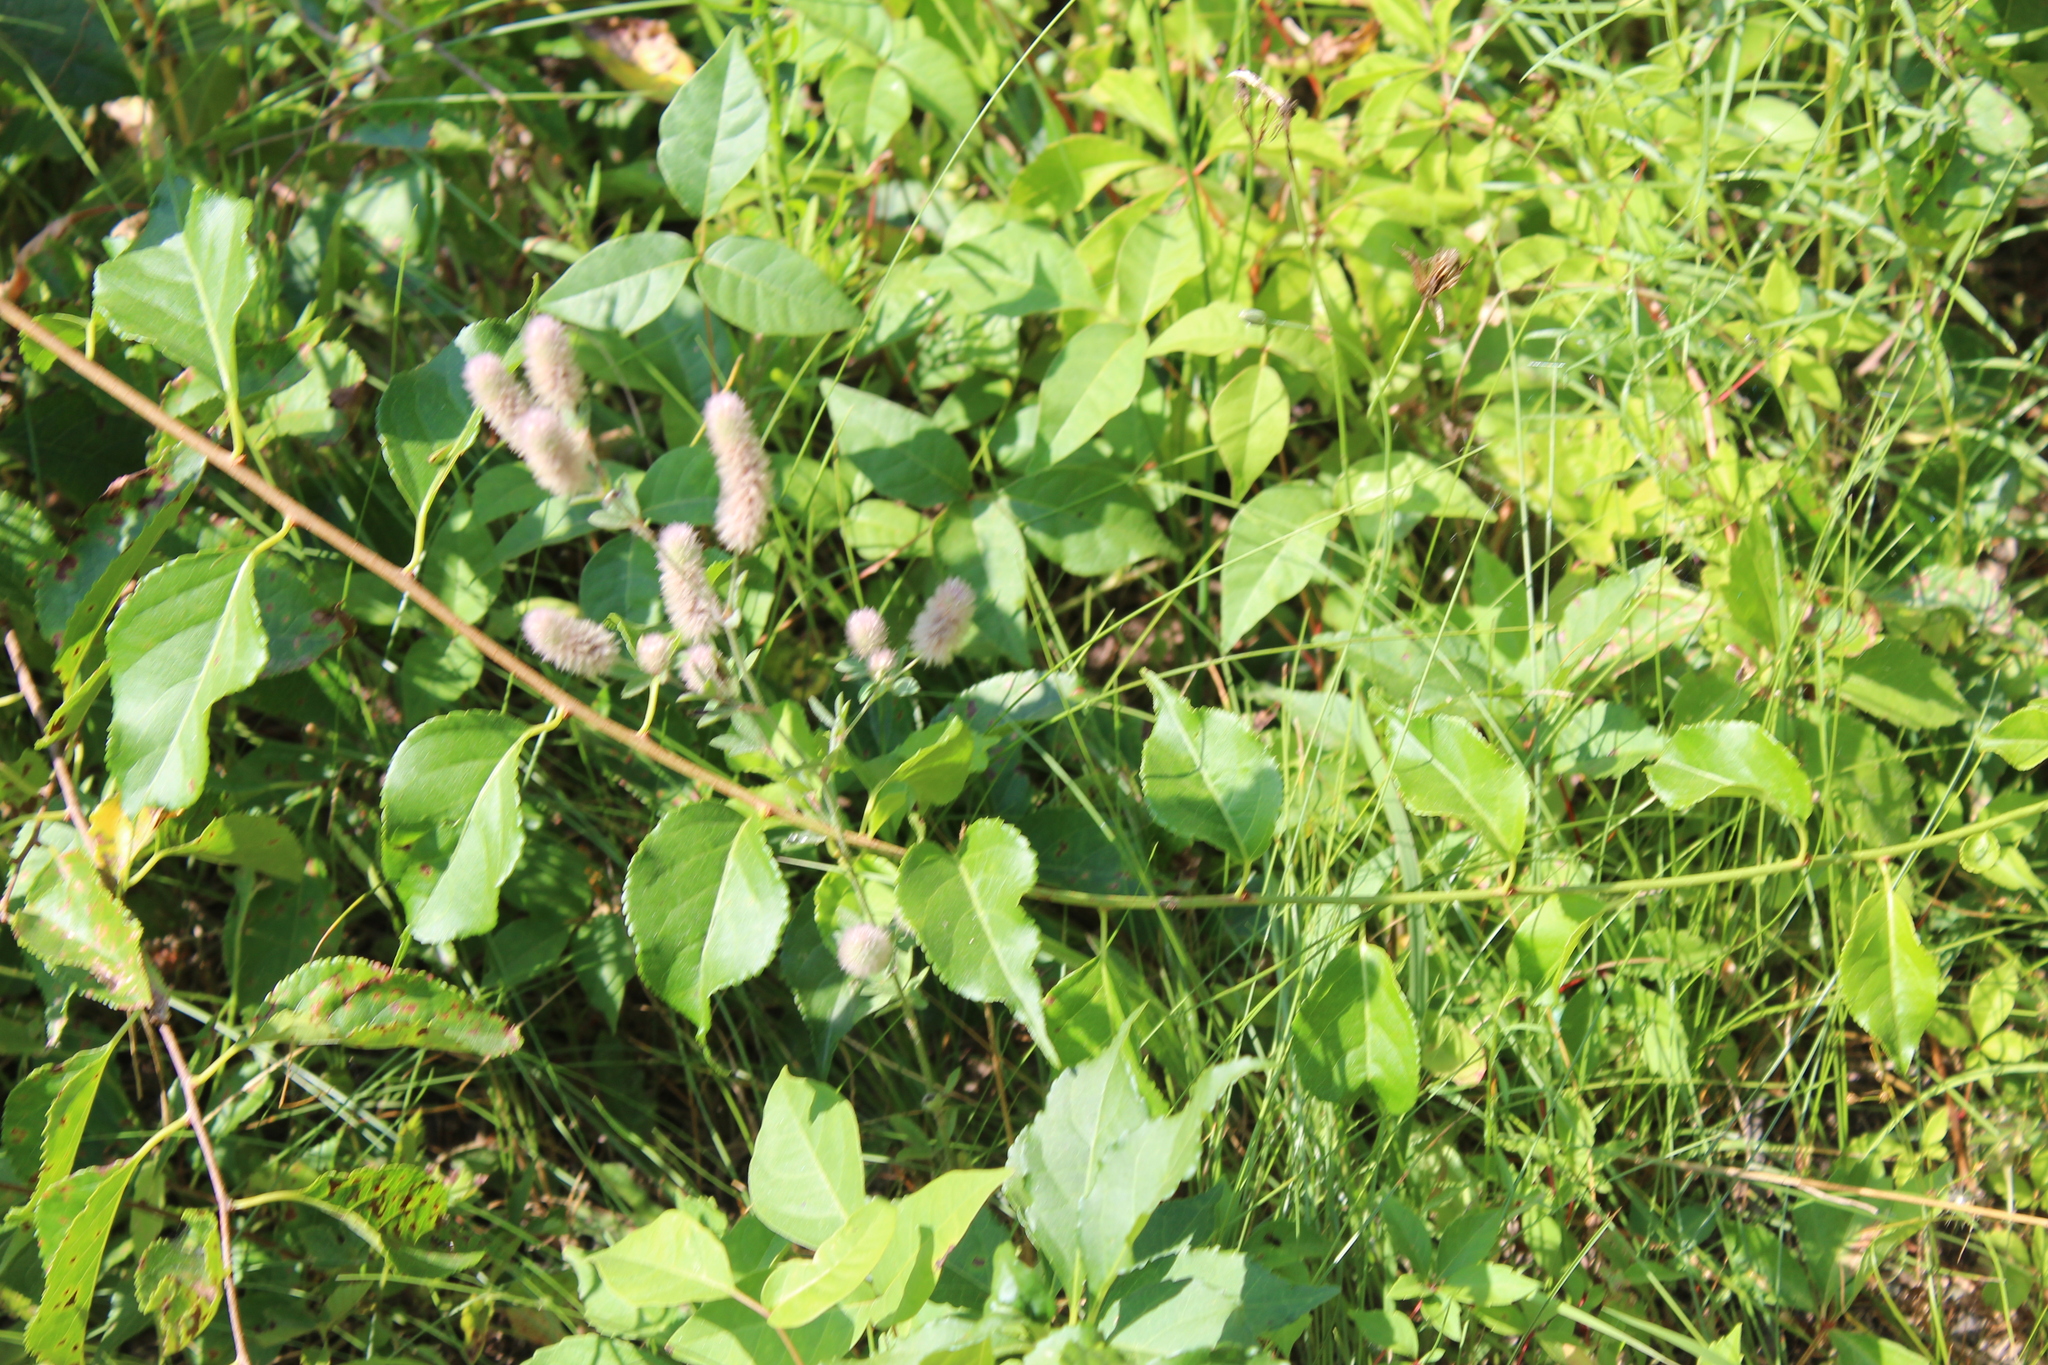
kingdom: Plantae
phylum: Tracheophyta
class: Magnoliopsida
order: Fabales
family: Fabaceae
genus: Trifolium
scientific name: Trifolium arvense
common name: Hare's-foot clover
